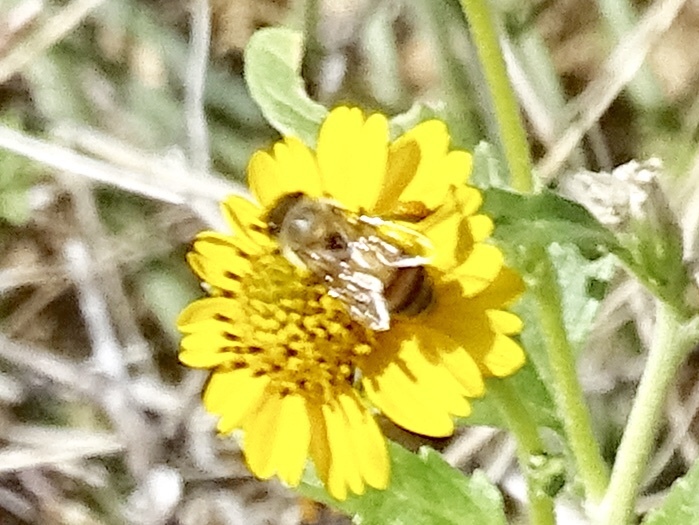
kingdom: Animalia
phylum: Arthropoda
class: Insecta
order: Hymenoptera
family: Apidae
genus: Apis
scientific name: Apis mellifera
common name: Honey bee
